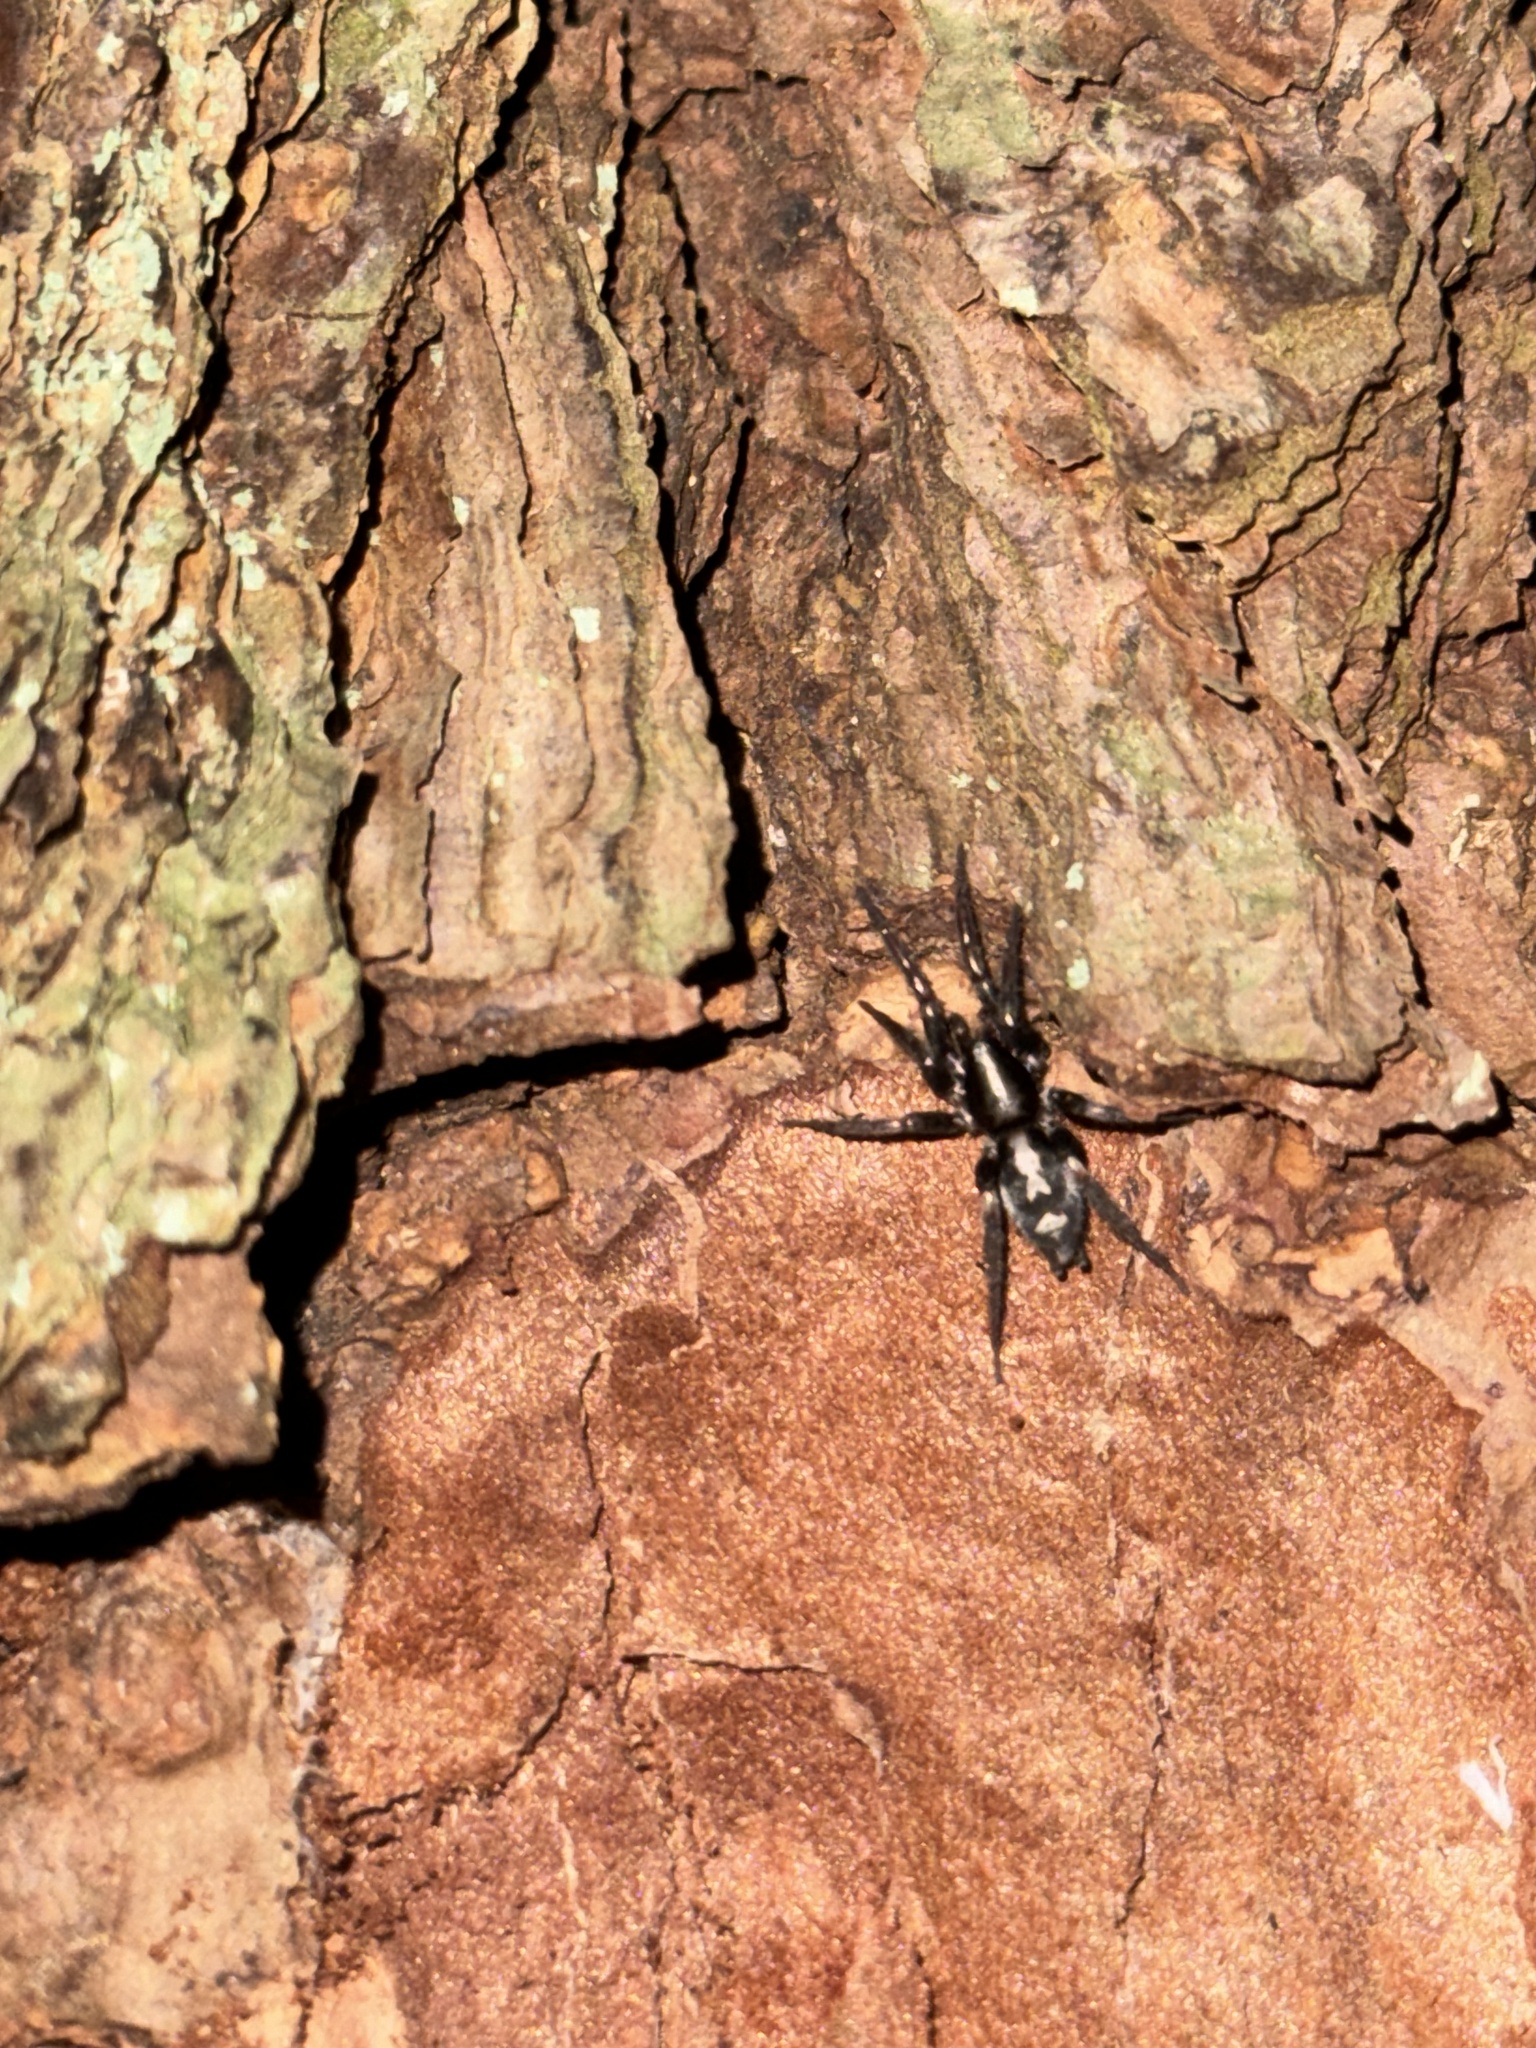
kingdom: Animalia
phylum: Arthropoda
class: Arachnida
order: Araneae
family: Gnaphosidae
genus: Herpyllus
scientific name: Herpyllus ecclesiasticus
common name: Eastern parson spider
